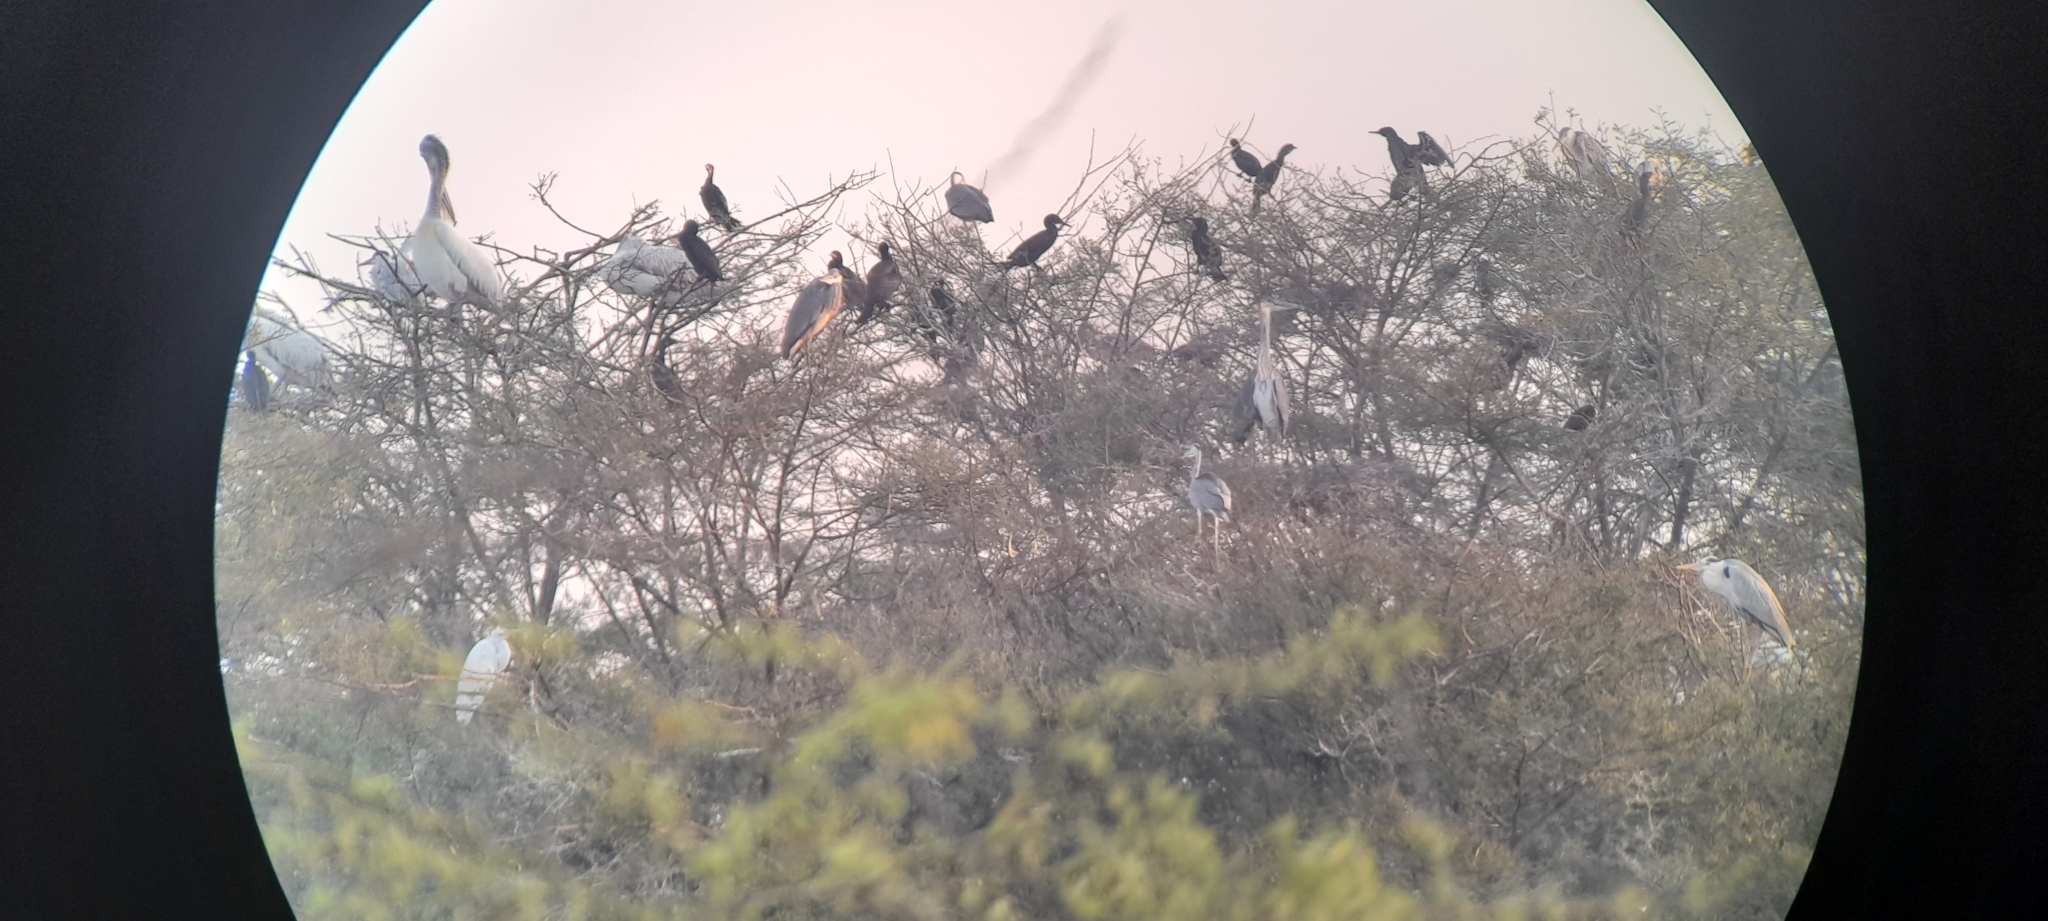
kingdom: Animalia
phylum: Chordata
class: Aves
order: Suliformes
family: Phalacrocoracidae
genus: Phalacrocorax
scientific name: Phalacrocorax fuscicollis
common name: Indian cormorant
